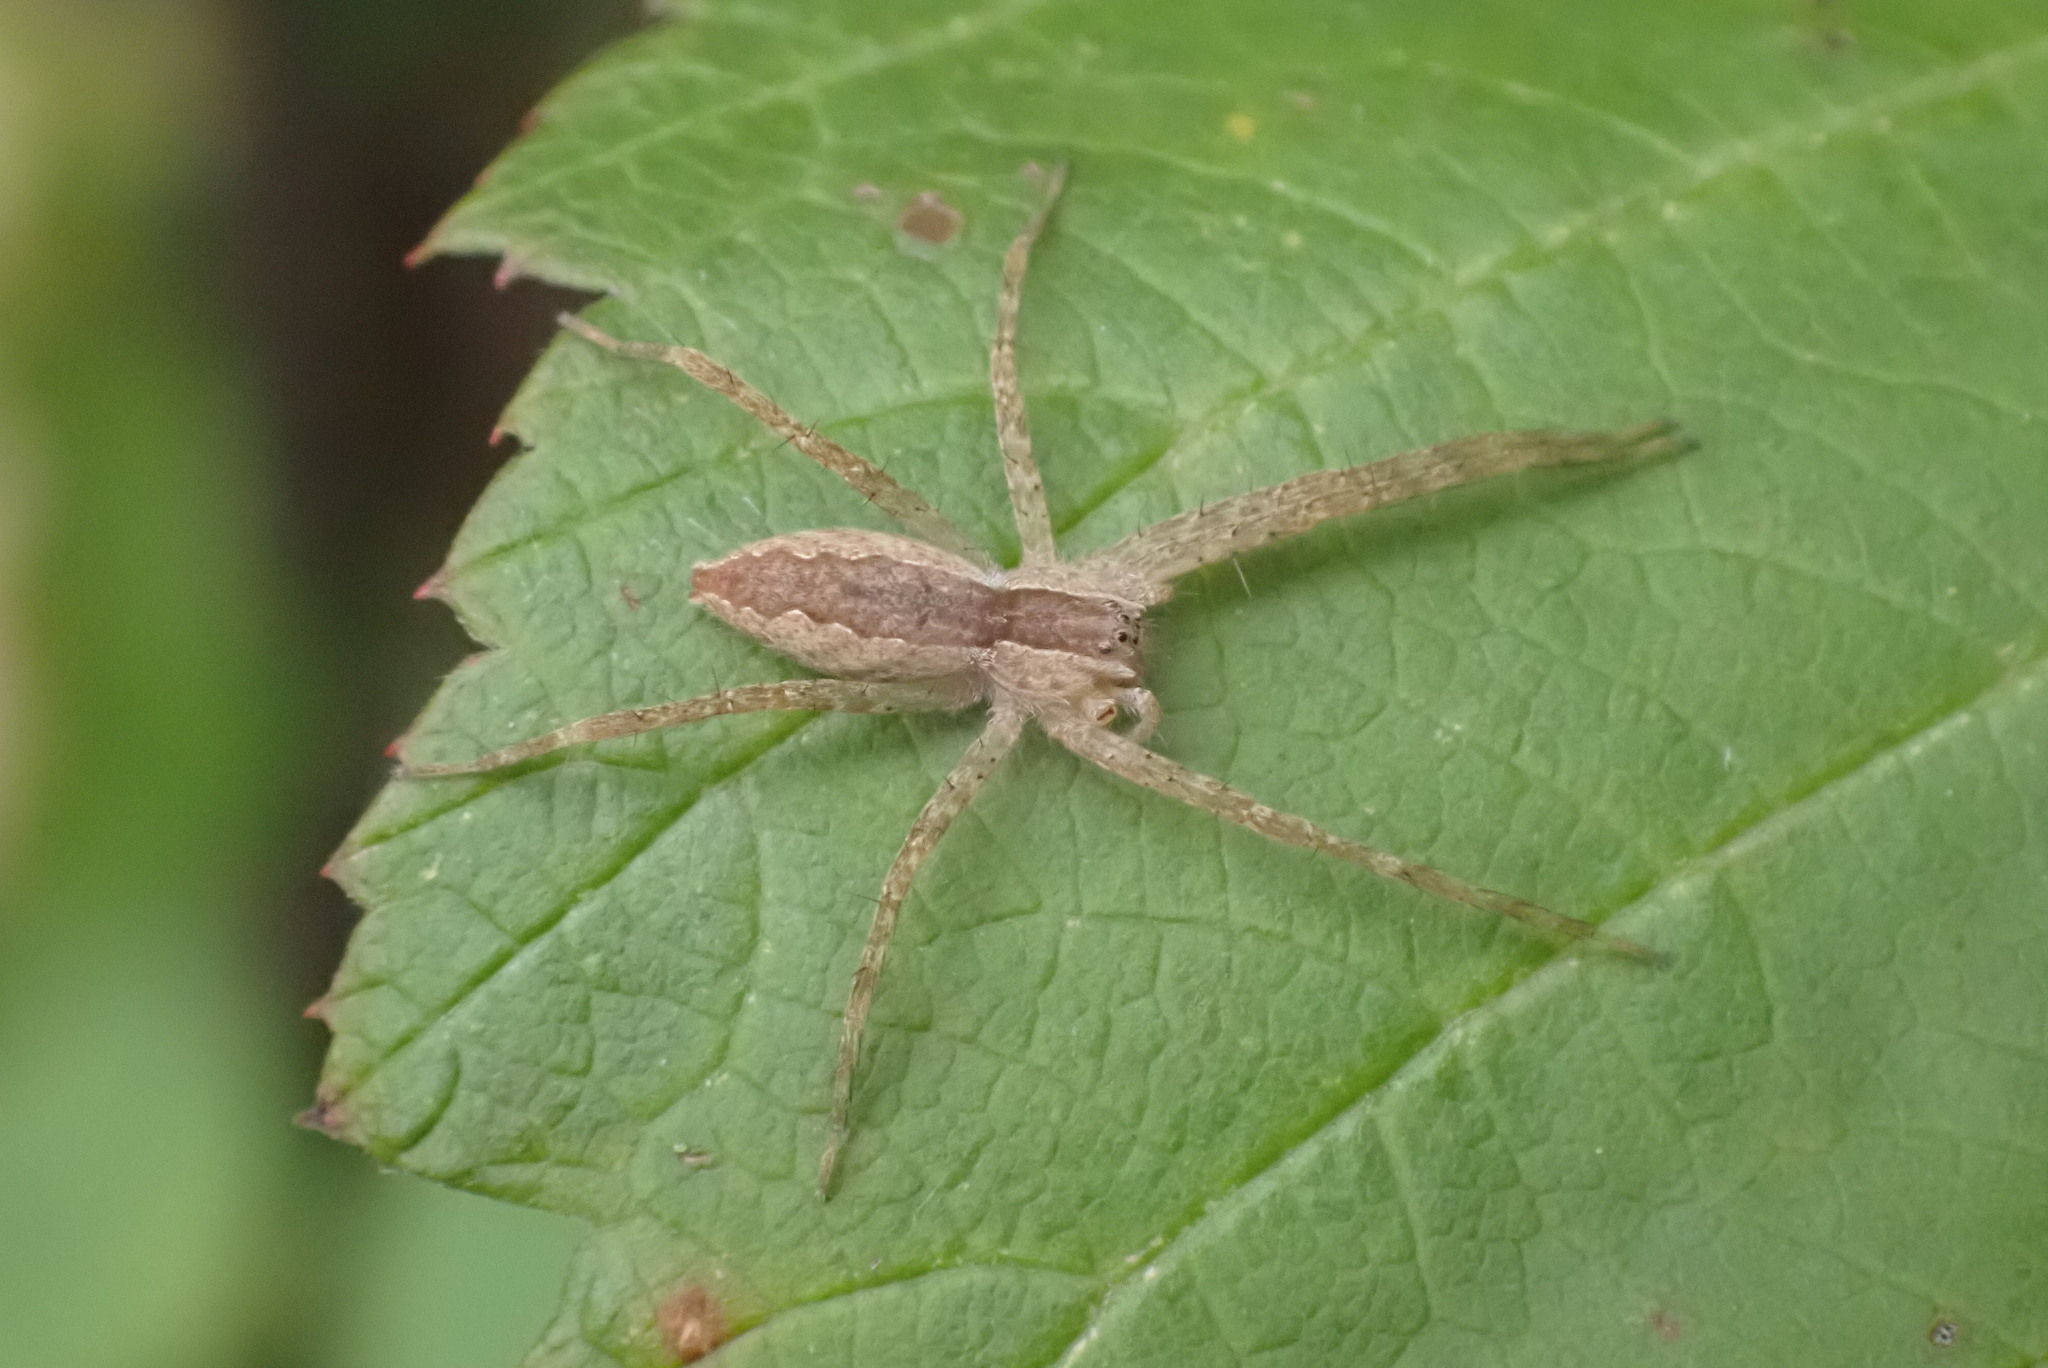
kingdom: Animalia
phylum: Arthropoda
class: Arachnida
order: Araneae
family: Pisauridae
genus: Pisaurina
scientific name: Pisaurina mira
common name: American nursery web spider
